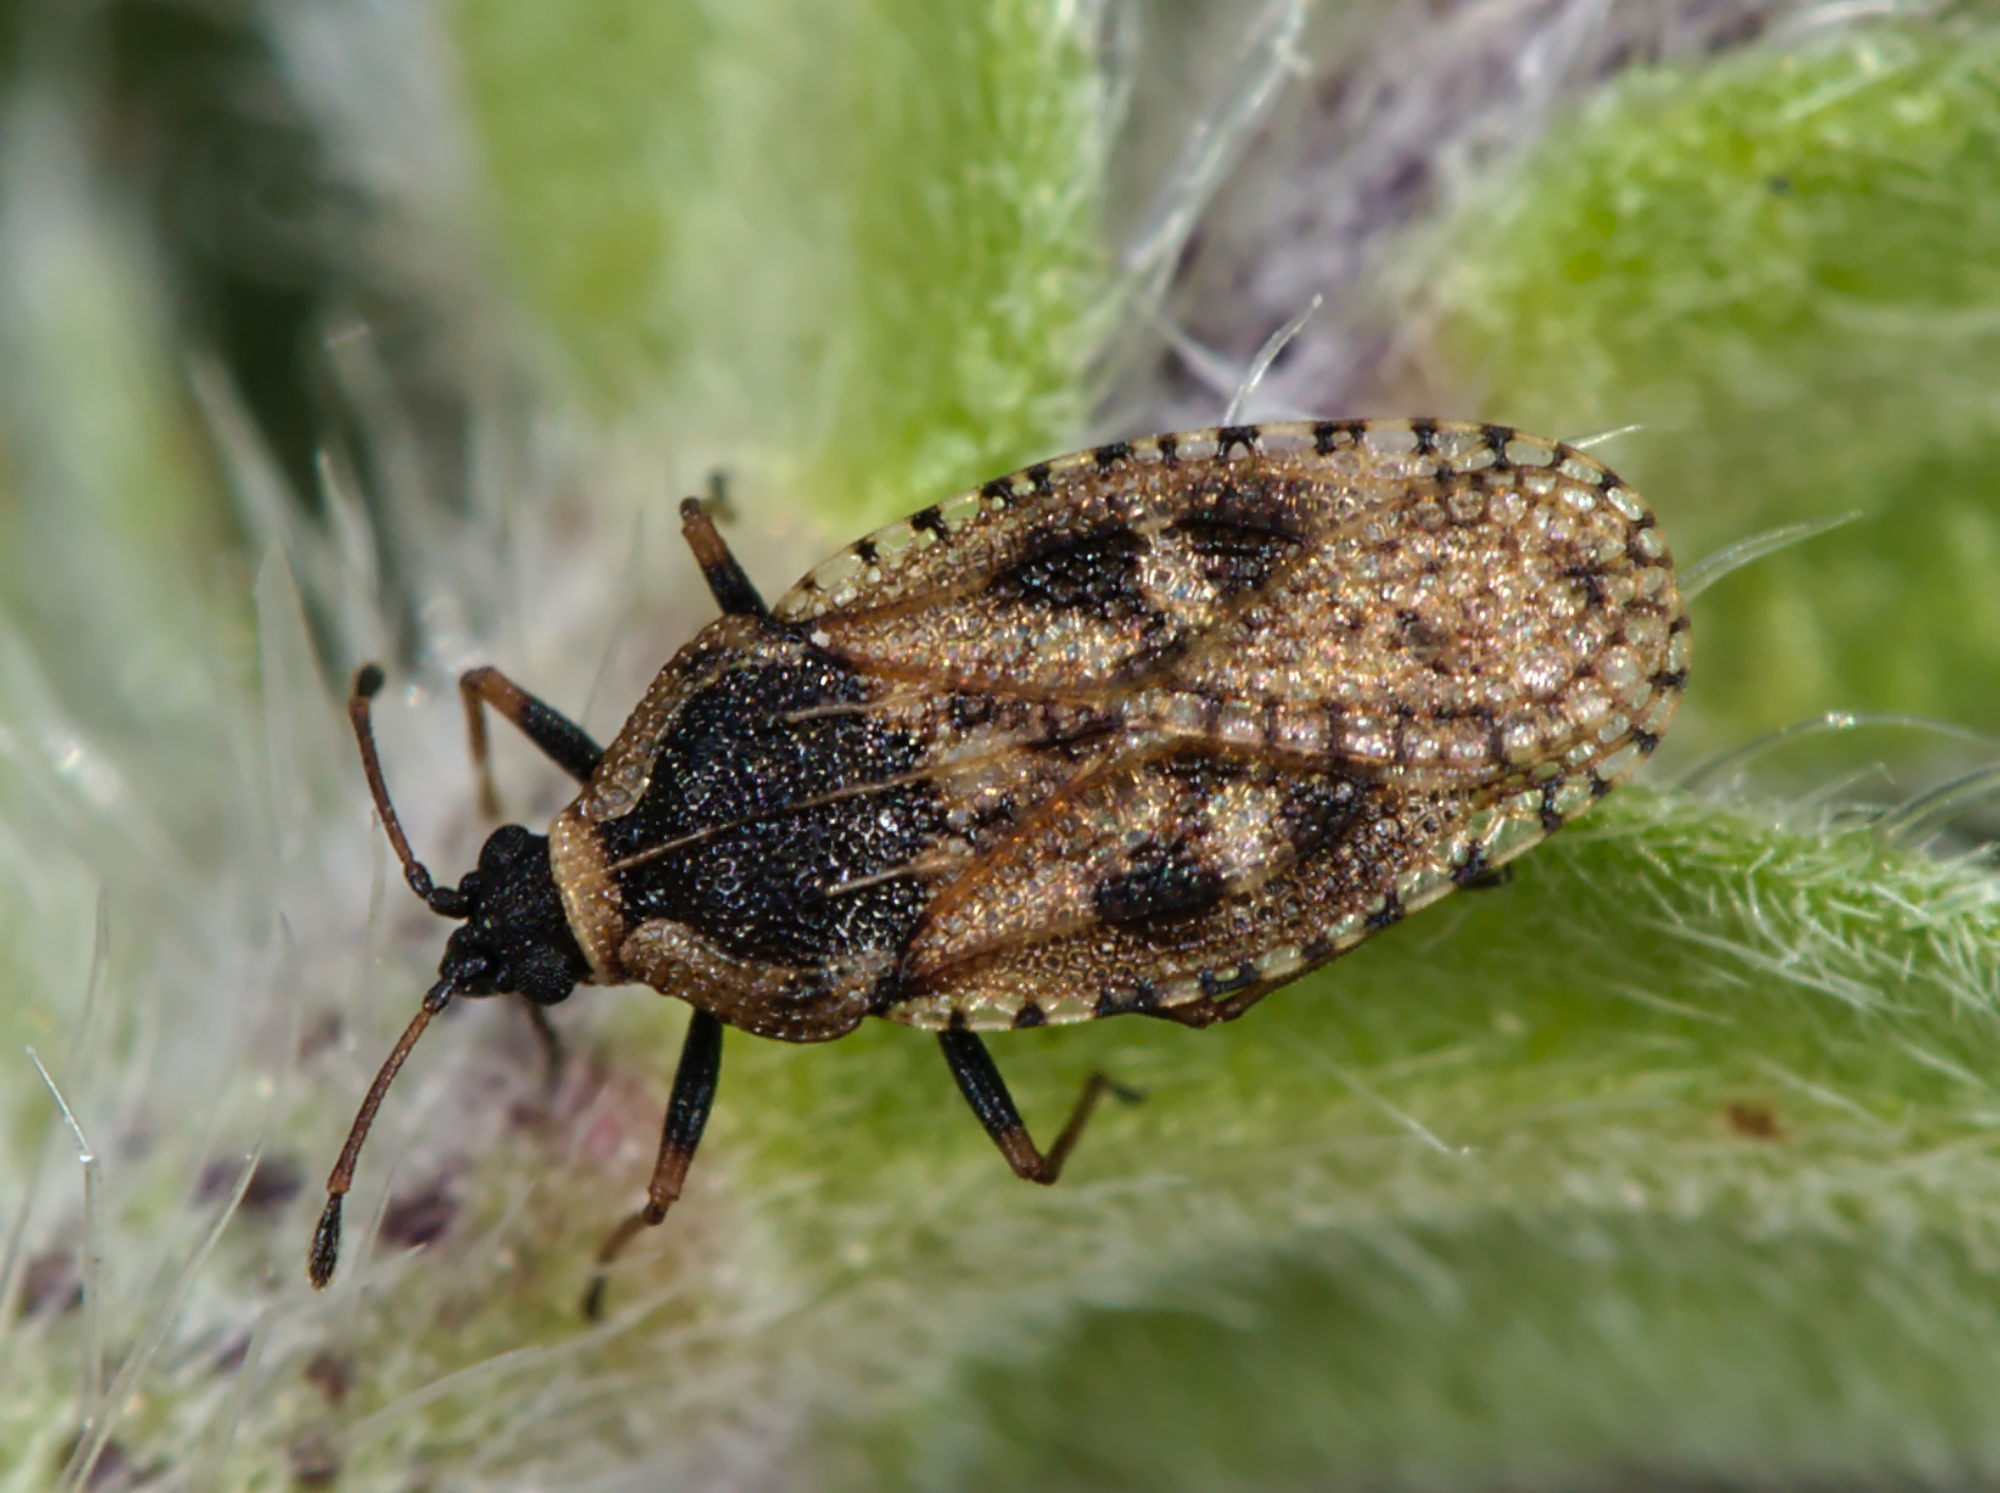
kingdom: Animalia
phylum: Arthropoda
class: Insecta
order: Hemiptera
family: Tingidae
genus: Dictyla
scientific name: Dictyla echii
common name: Lace bug
